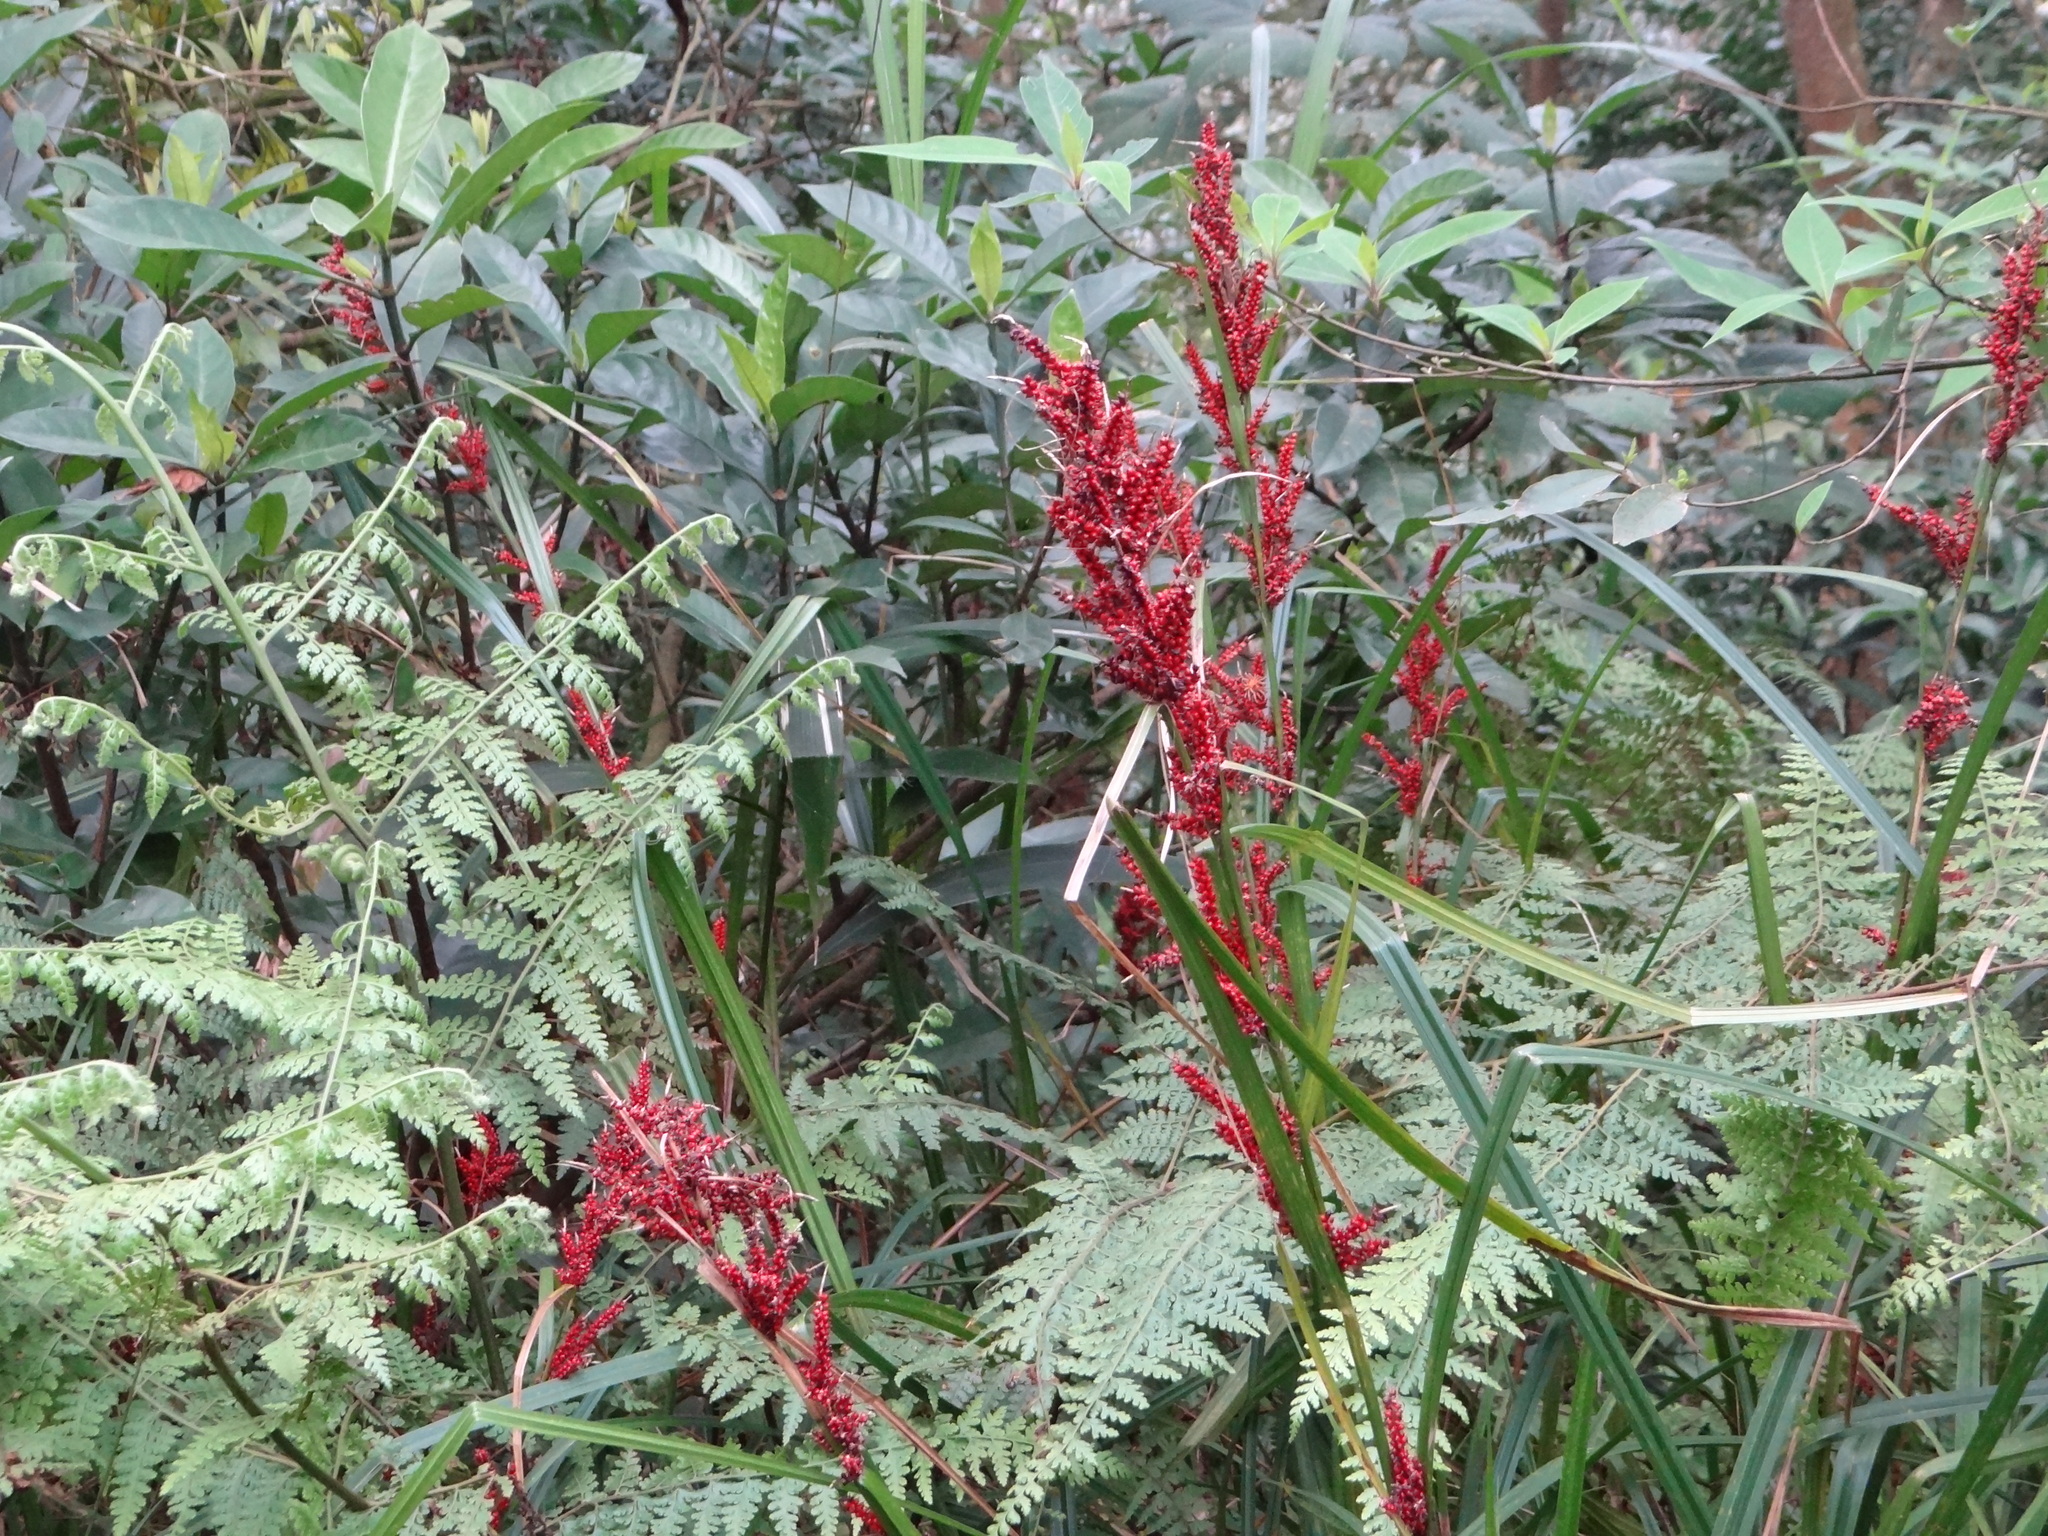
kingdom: Plantae
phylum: Tracheophyta
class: Liliopsida
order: Poales
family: Cyperaceae
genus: Carex
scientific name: Carex baccans
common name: Crimson seeded sedge
